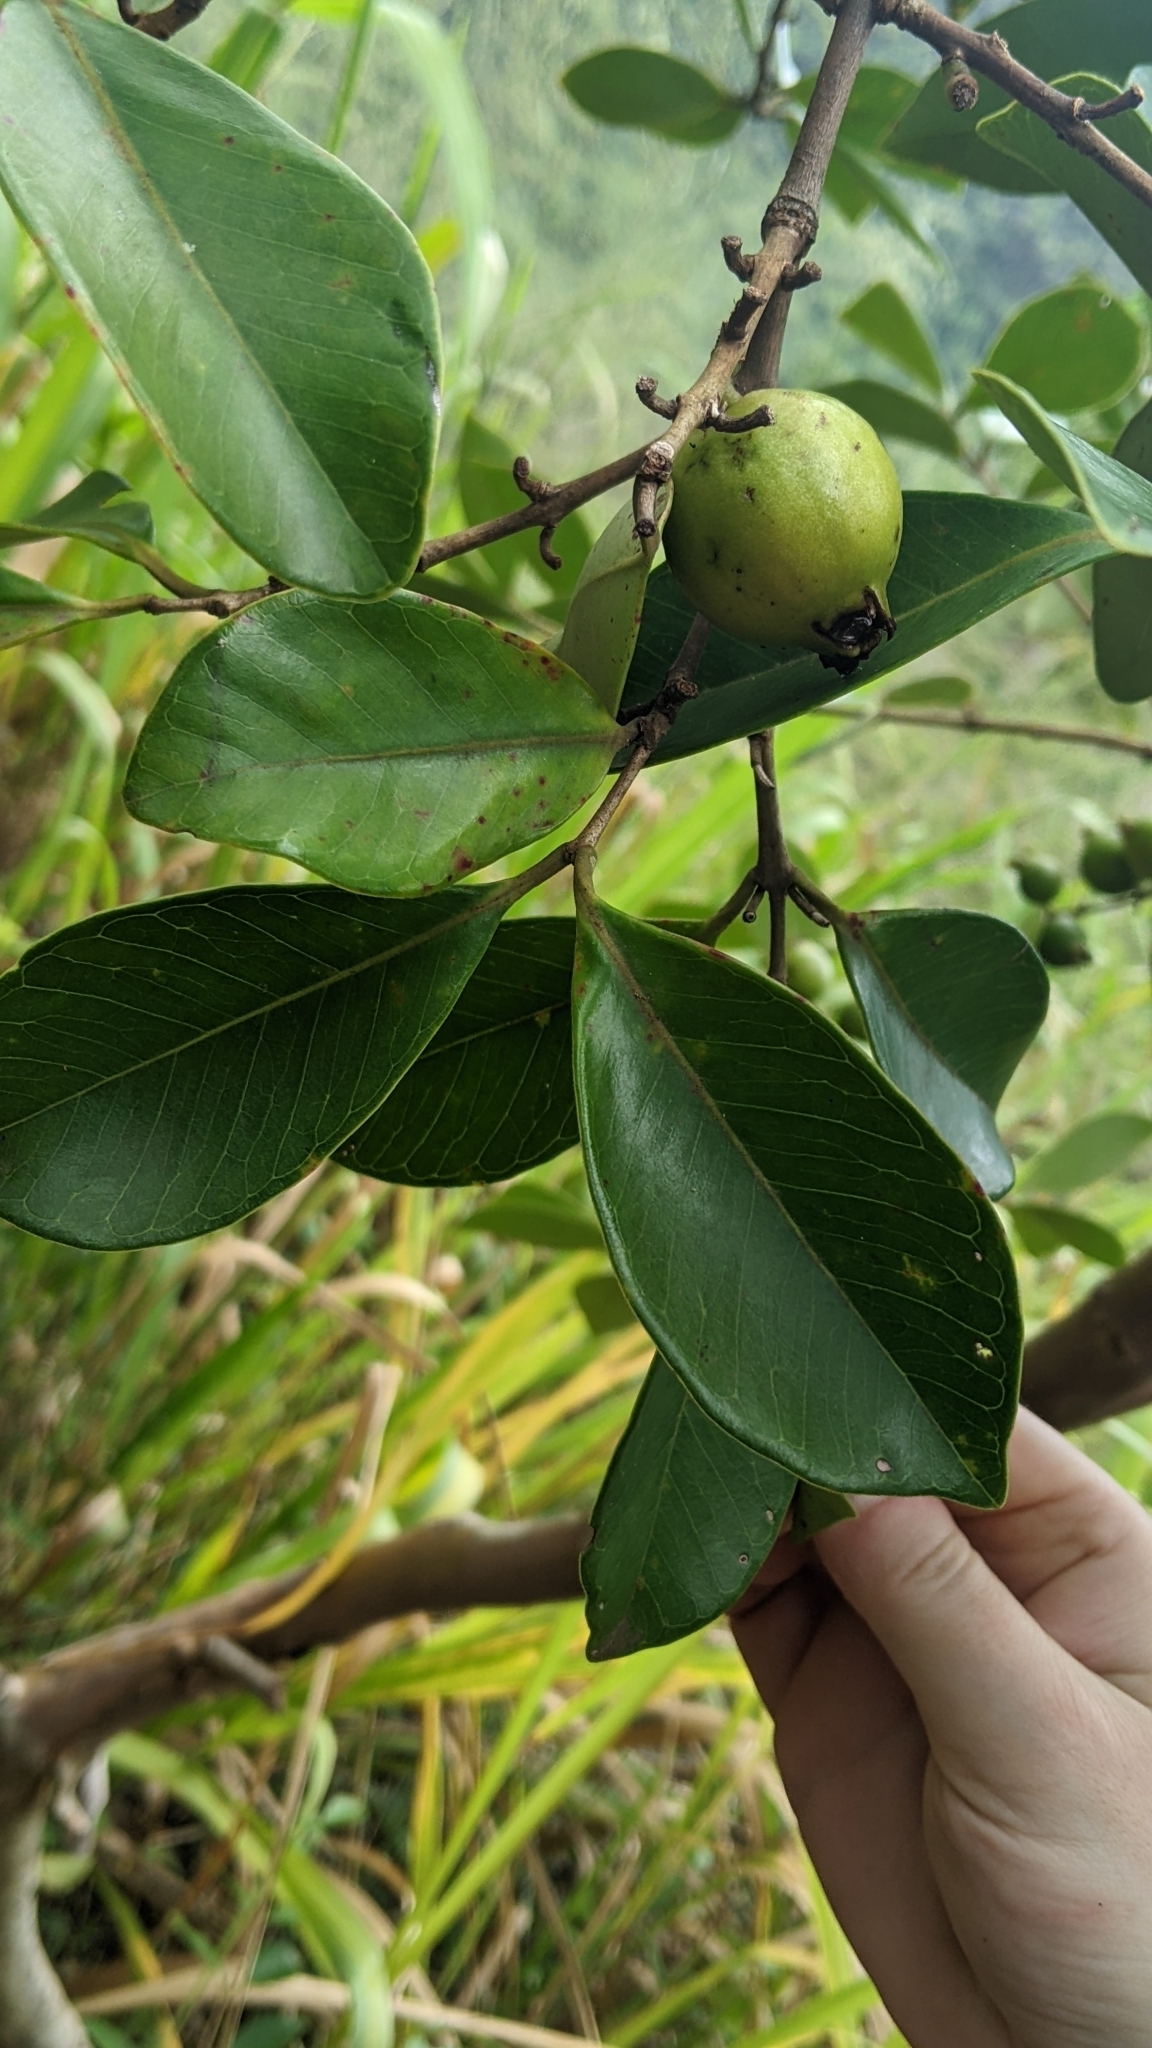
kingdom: Plantae
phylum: Tracheophyta
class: Magnoliopsida
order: Myrtales
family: Myrtaceae
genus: Psidium
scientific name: Psidium cattleianum
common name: Strawberry guava
